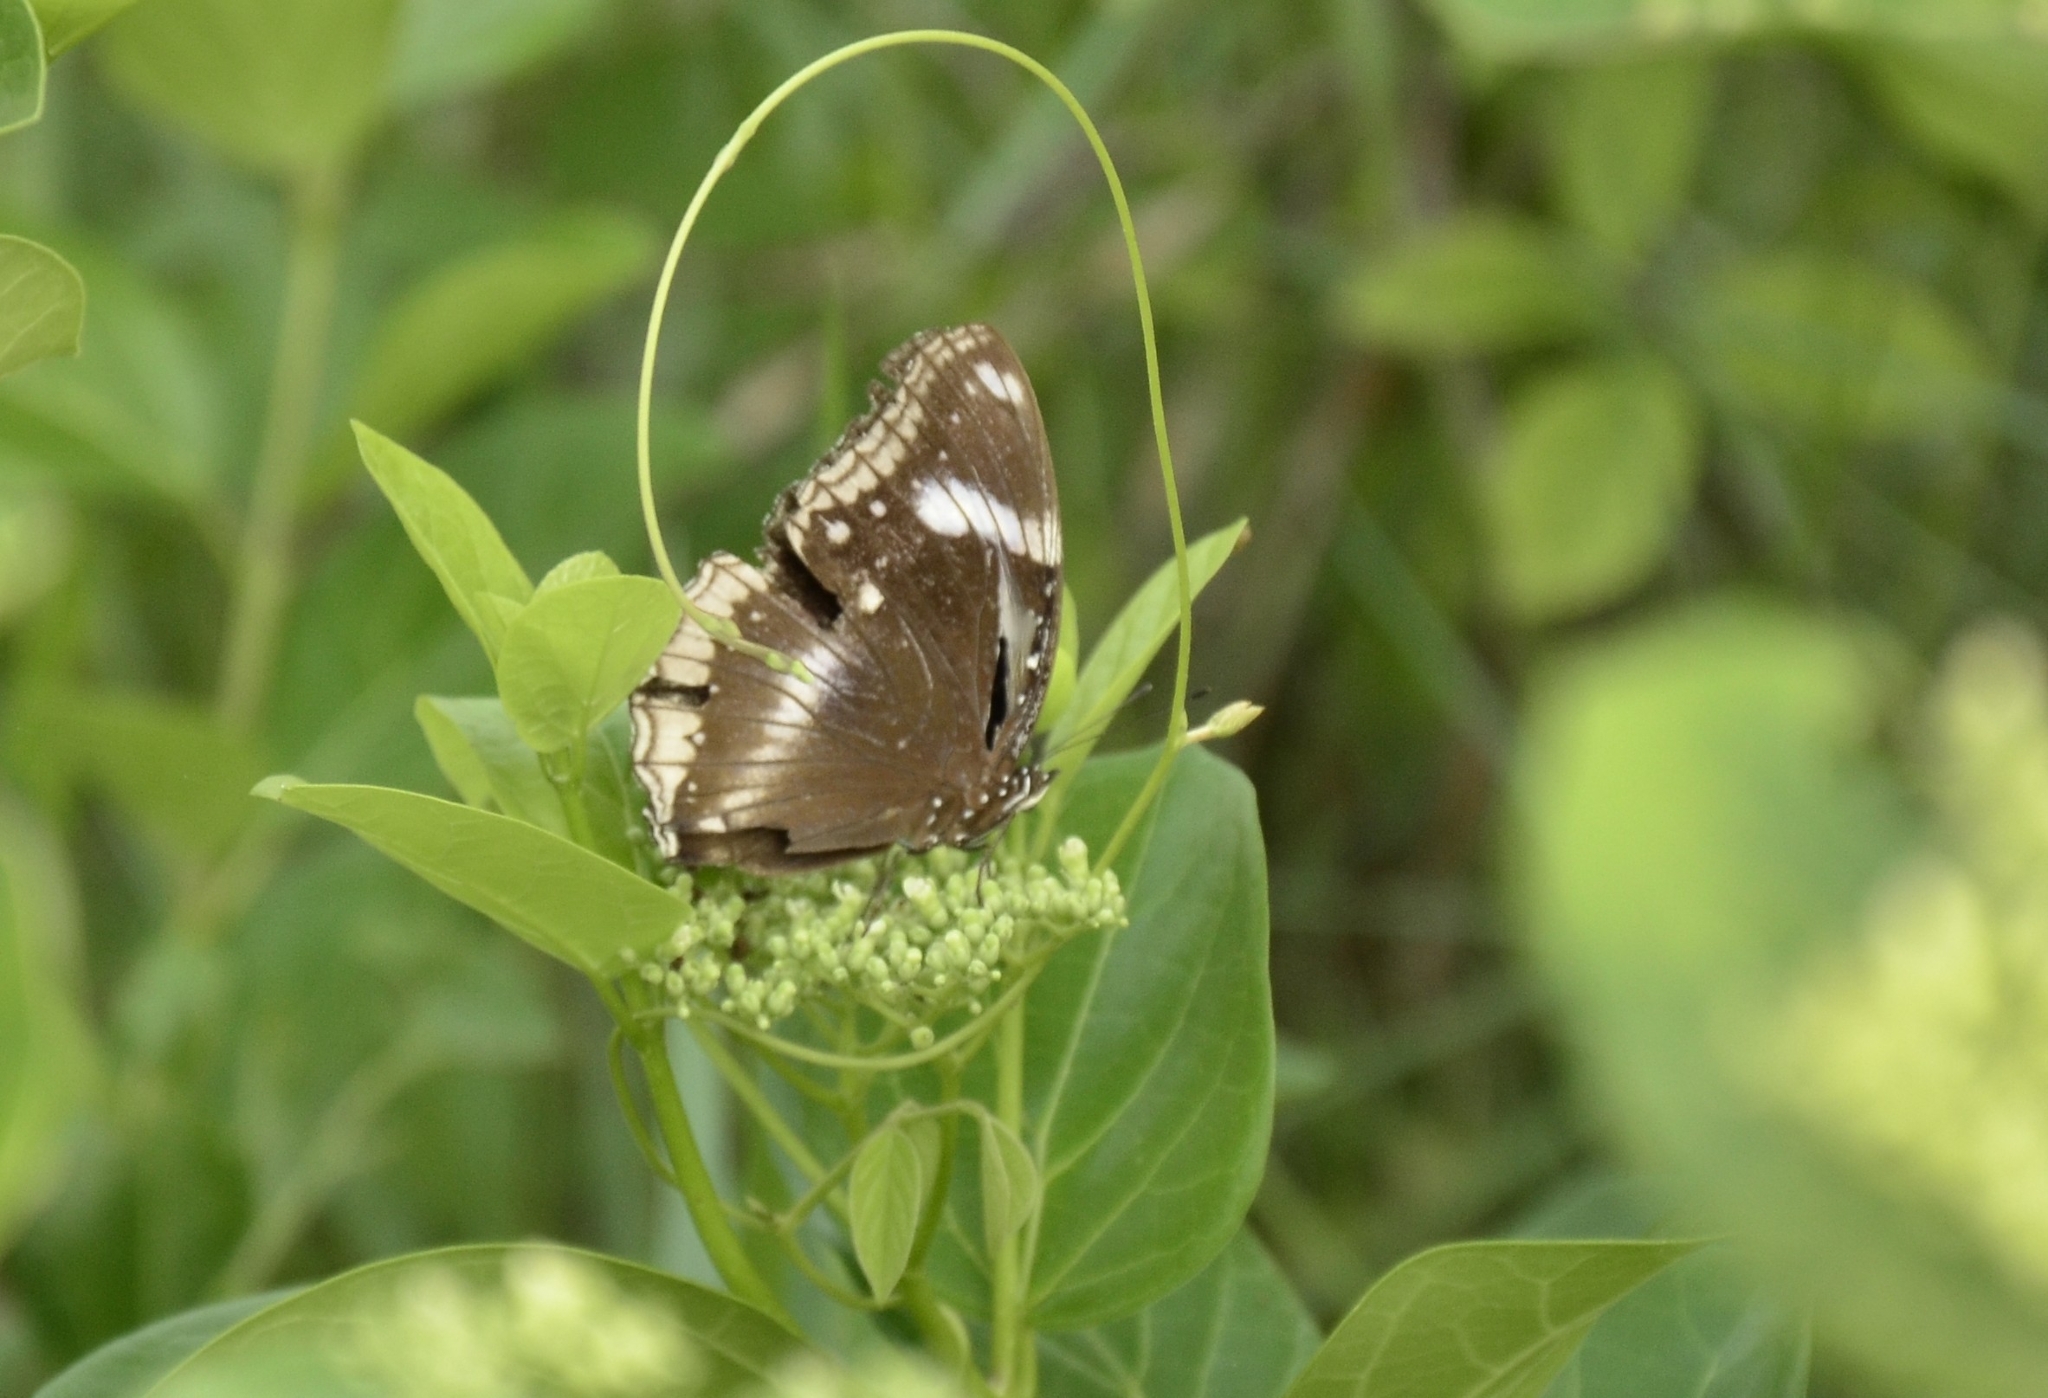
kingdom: Animalia
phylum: Arthropoda
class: Insecta
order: Lepidoptera
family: Nymphalidae
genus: Hypolimnas
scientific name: Hypolimnas bolina
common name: Great eggfly
